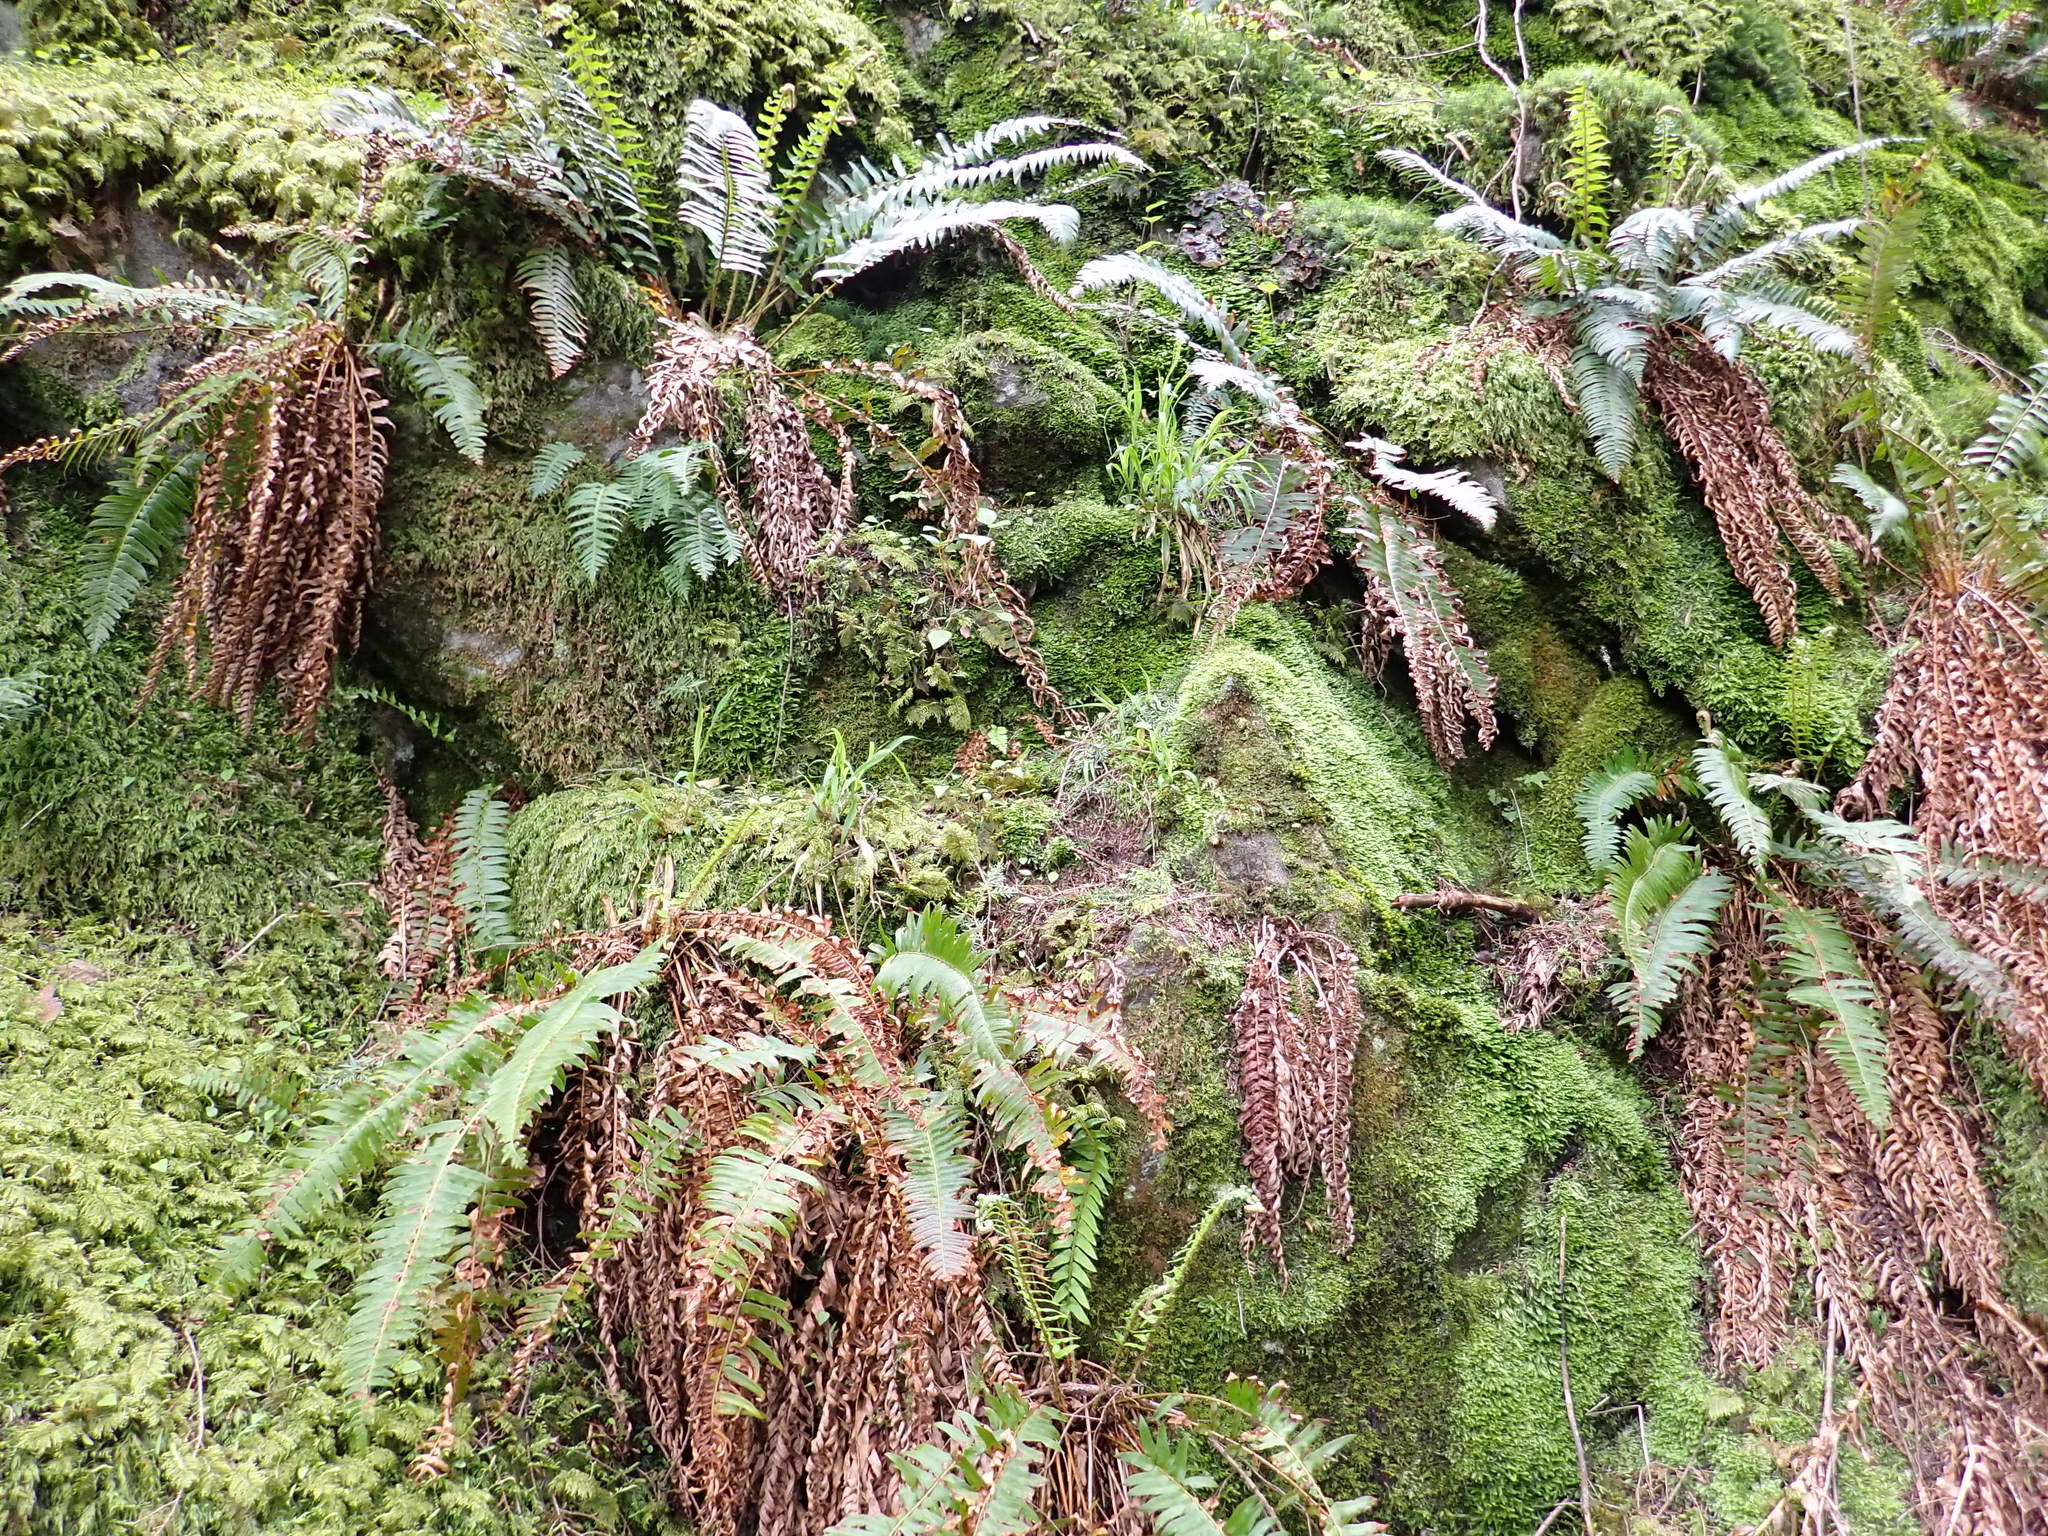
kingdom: Plantae
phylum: Tracheophyta
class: Polypodiopsida
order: Polypodiales
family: Dryopteridaceae
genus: Polystichum
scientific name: Polystichum munitum
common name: Western sword-fern
